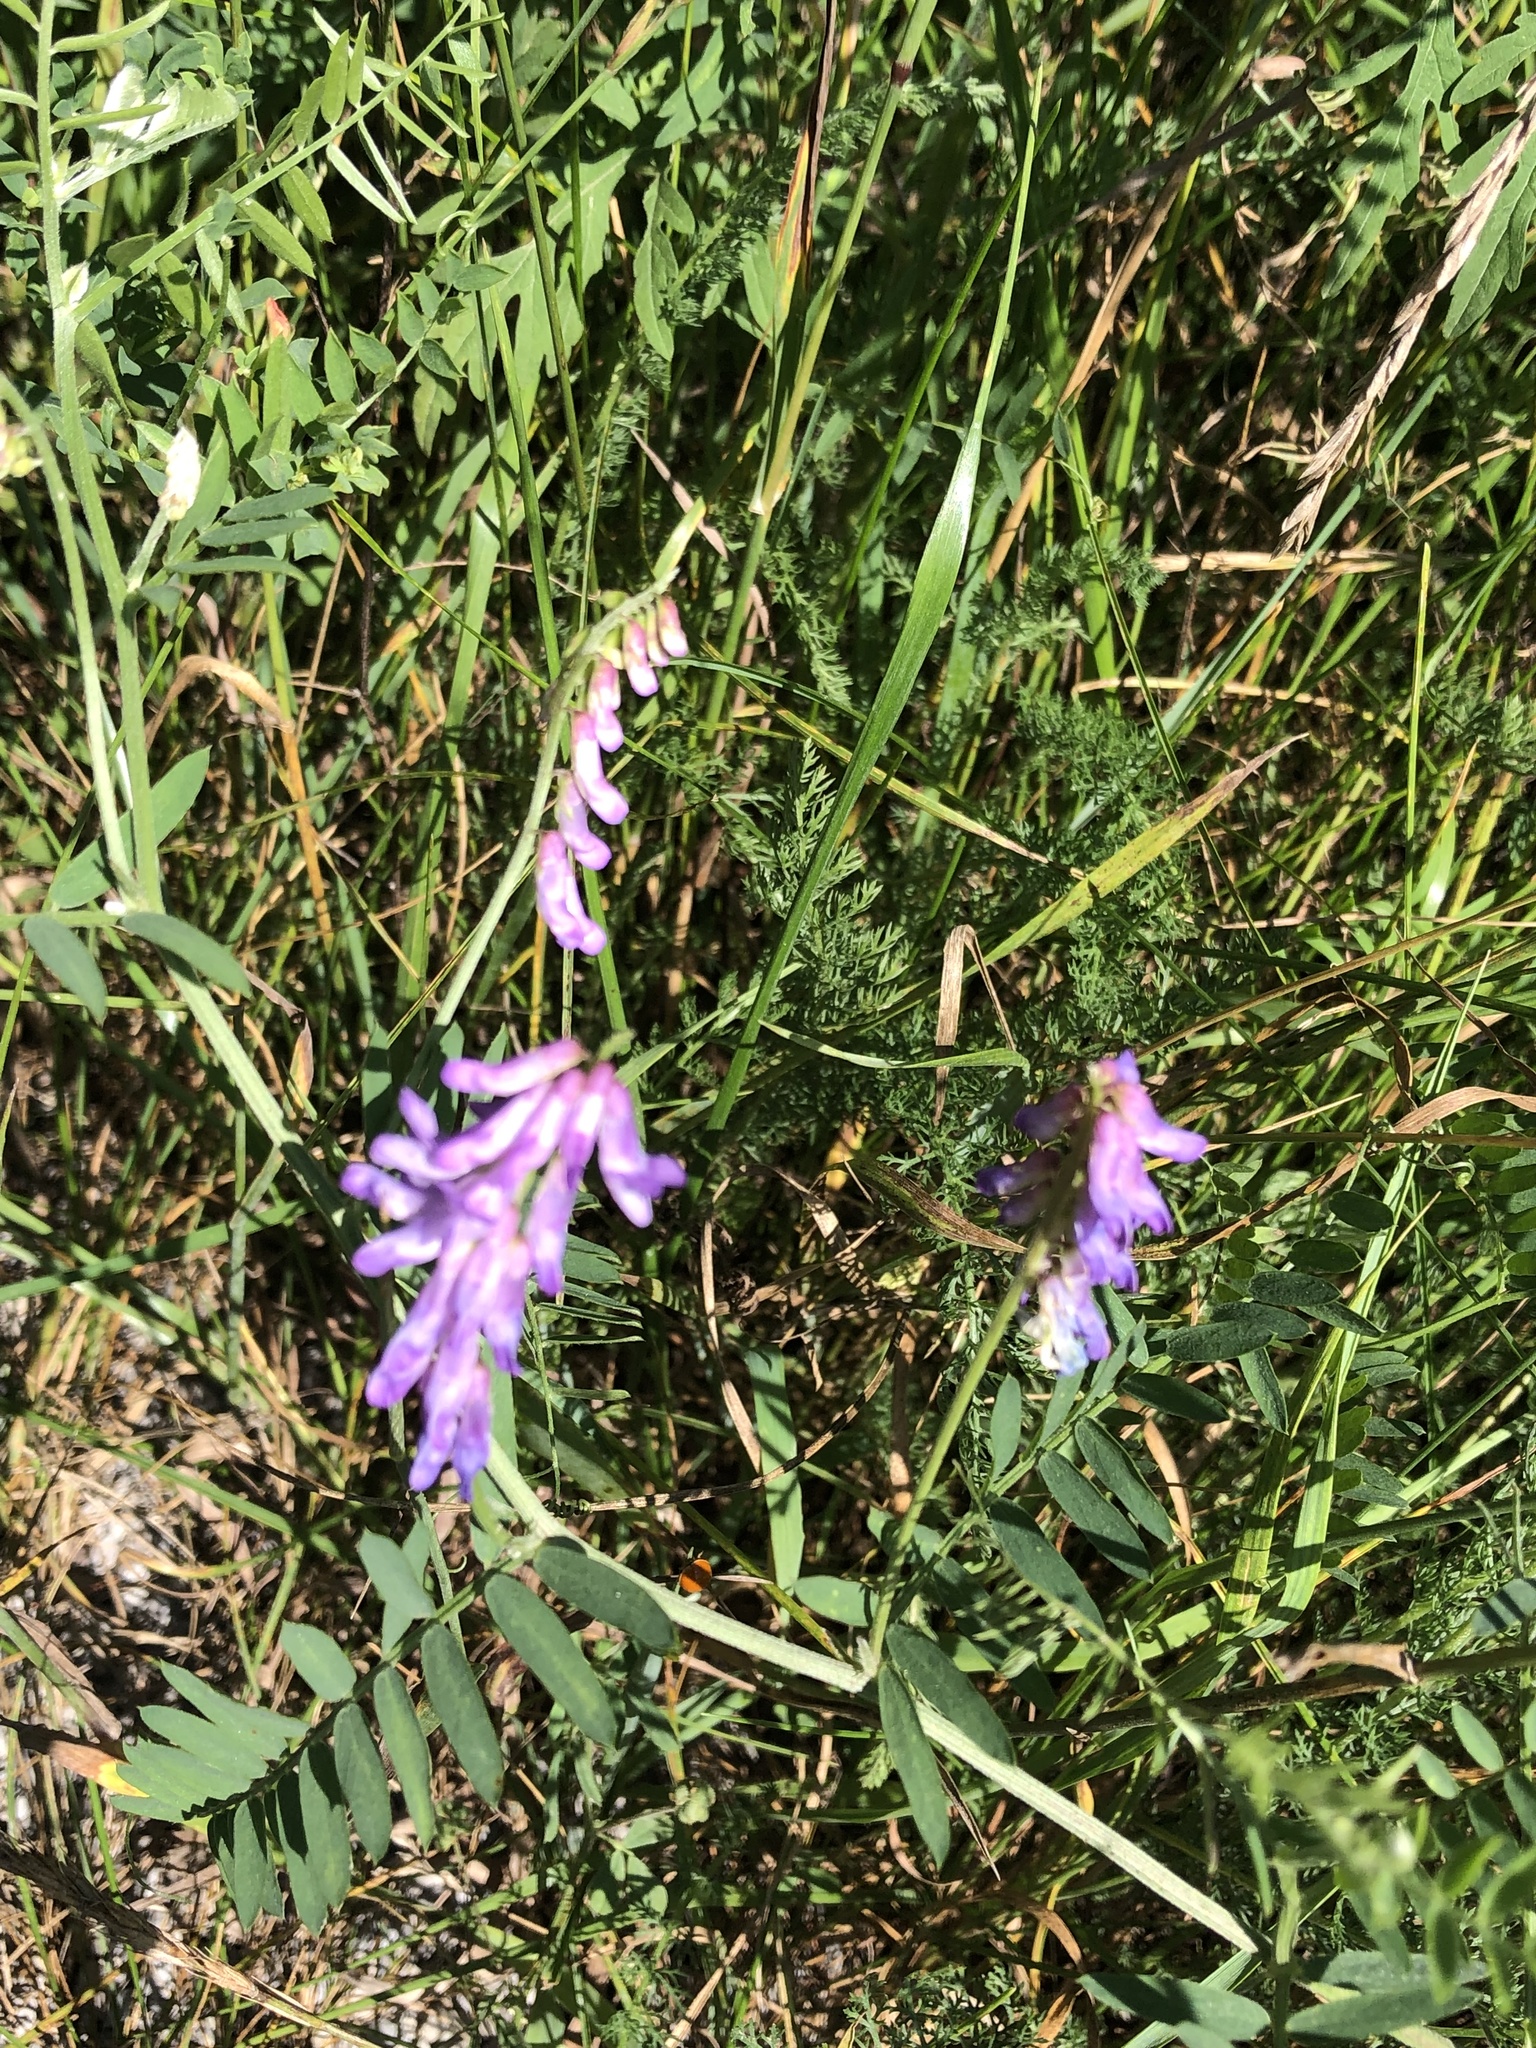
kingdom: Plantae
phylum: Tracheophyta
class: Magnoliopsida
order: Fabales
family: Fabaceae
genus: Vicia
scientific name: Vicia cracca
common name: Bird vetch
